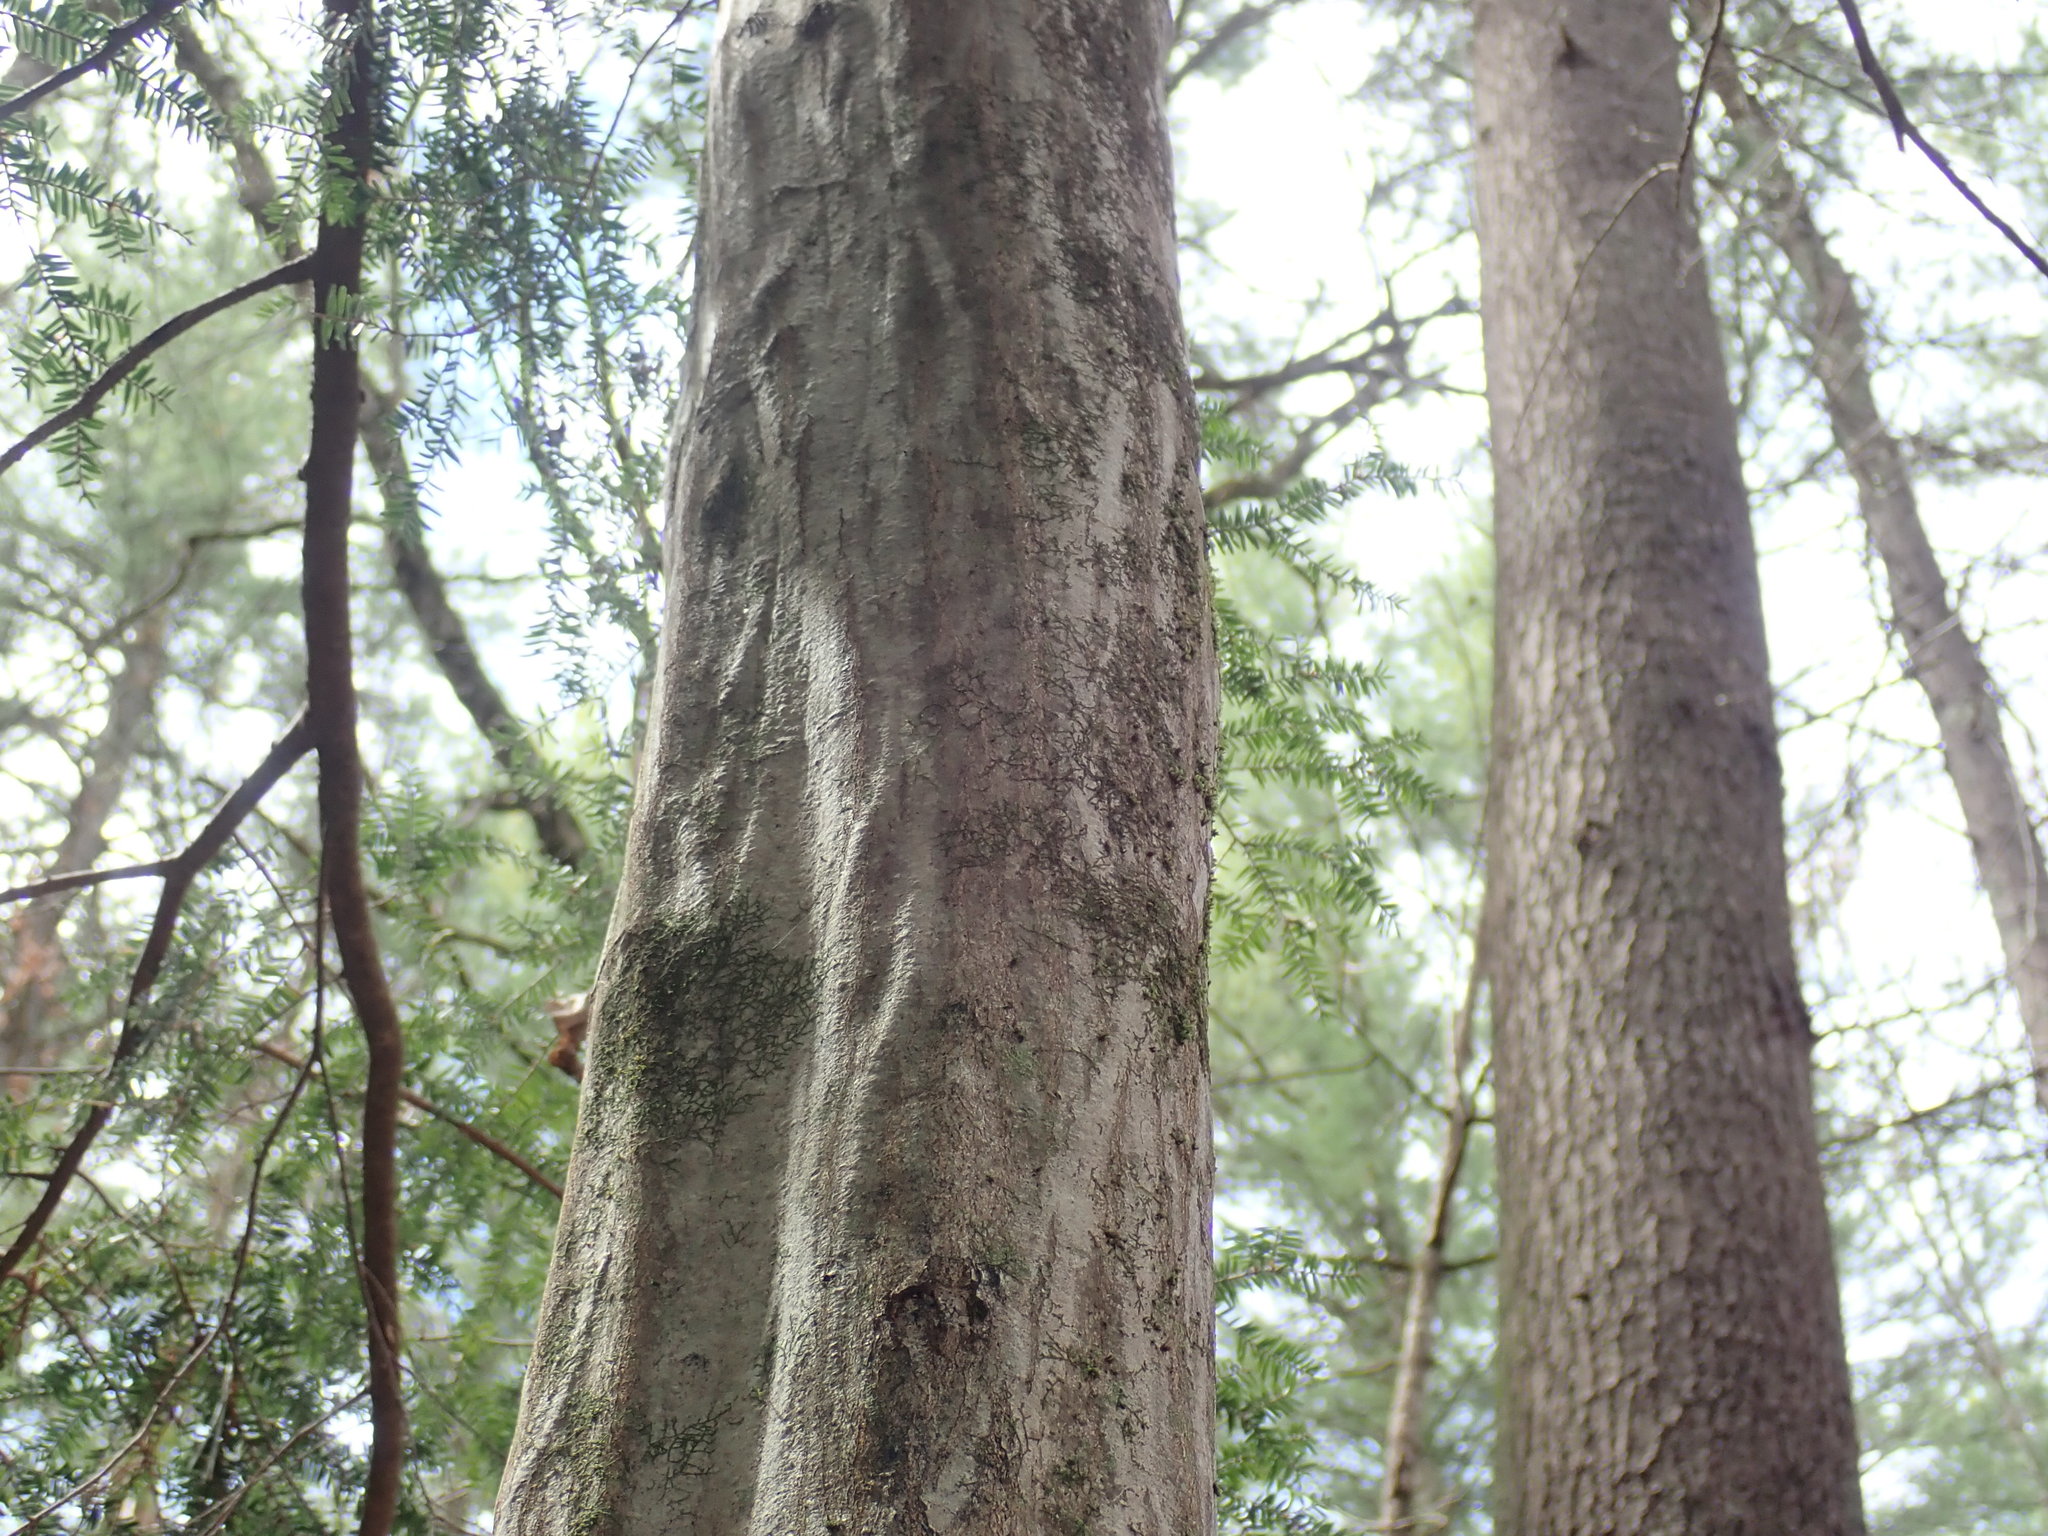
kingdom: Plantae
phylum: Tracheophyta
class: Magnoliopsida
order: Fagales
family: Betulaceae
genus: Carpinus
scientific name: Carpinus caroliniana
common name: American hornbeam
